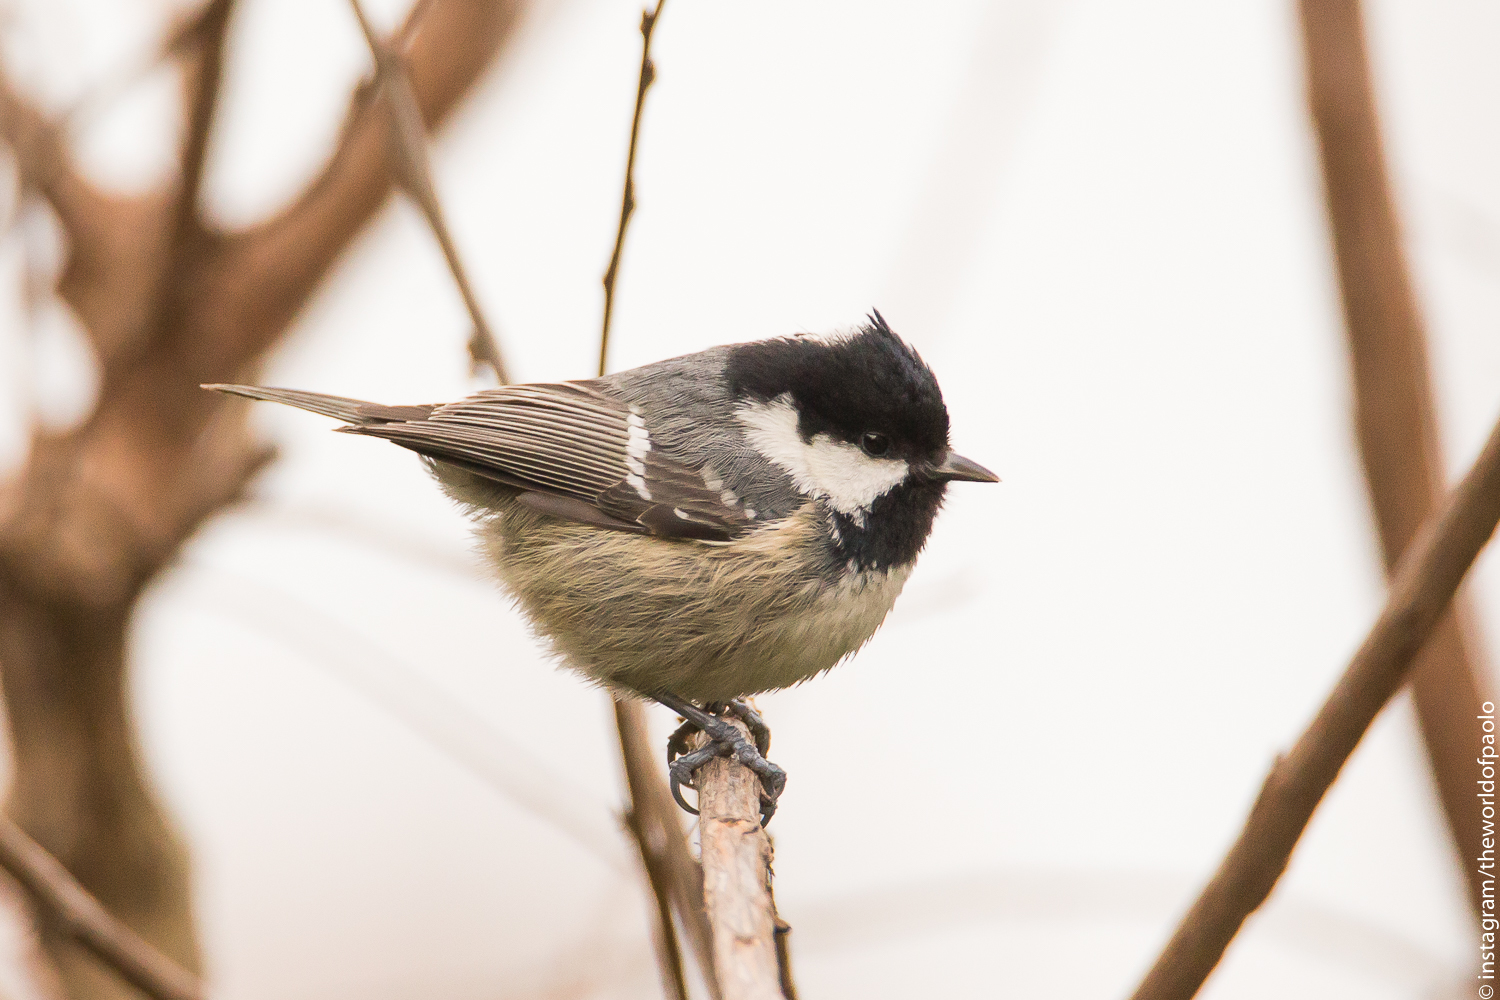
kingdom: Animalia
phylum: Chordata
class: Aves
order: Passeriformes
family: Paridae
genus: Periparus
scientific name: Periparus ater
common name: Coal tit
